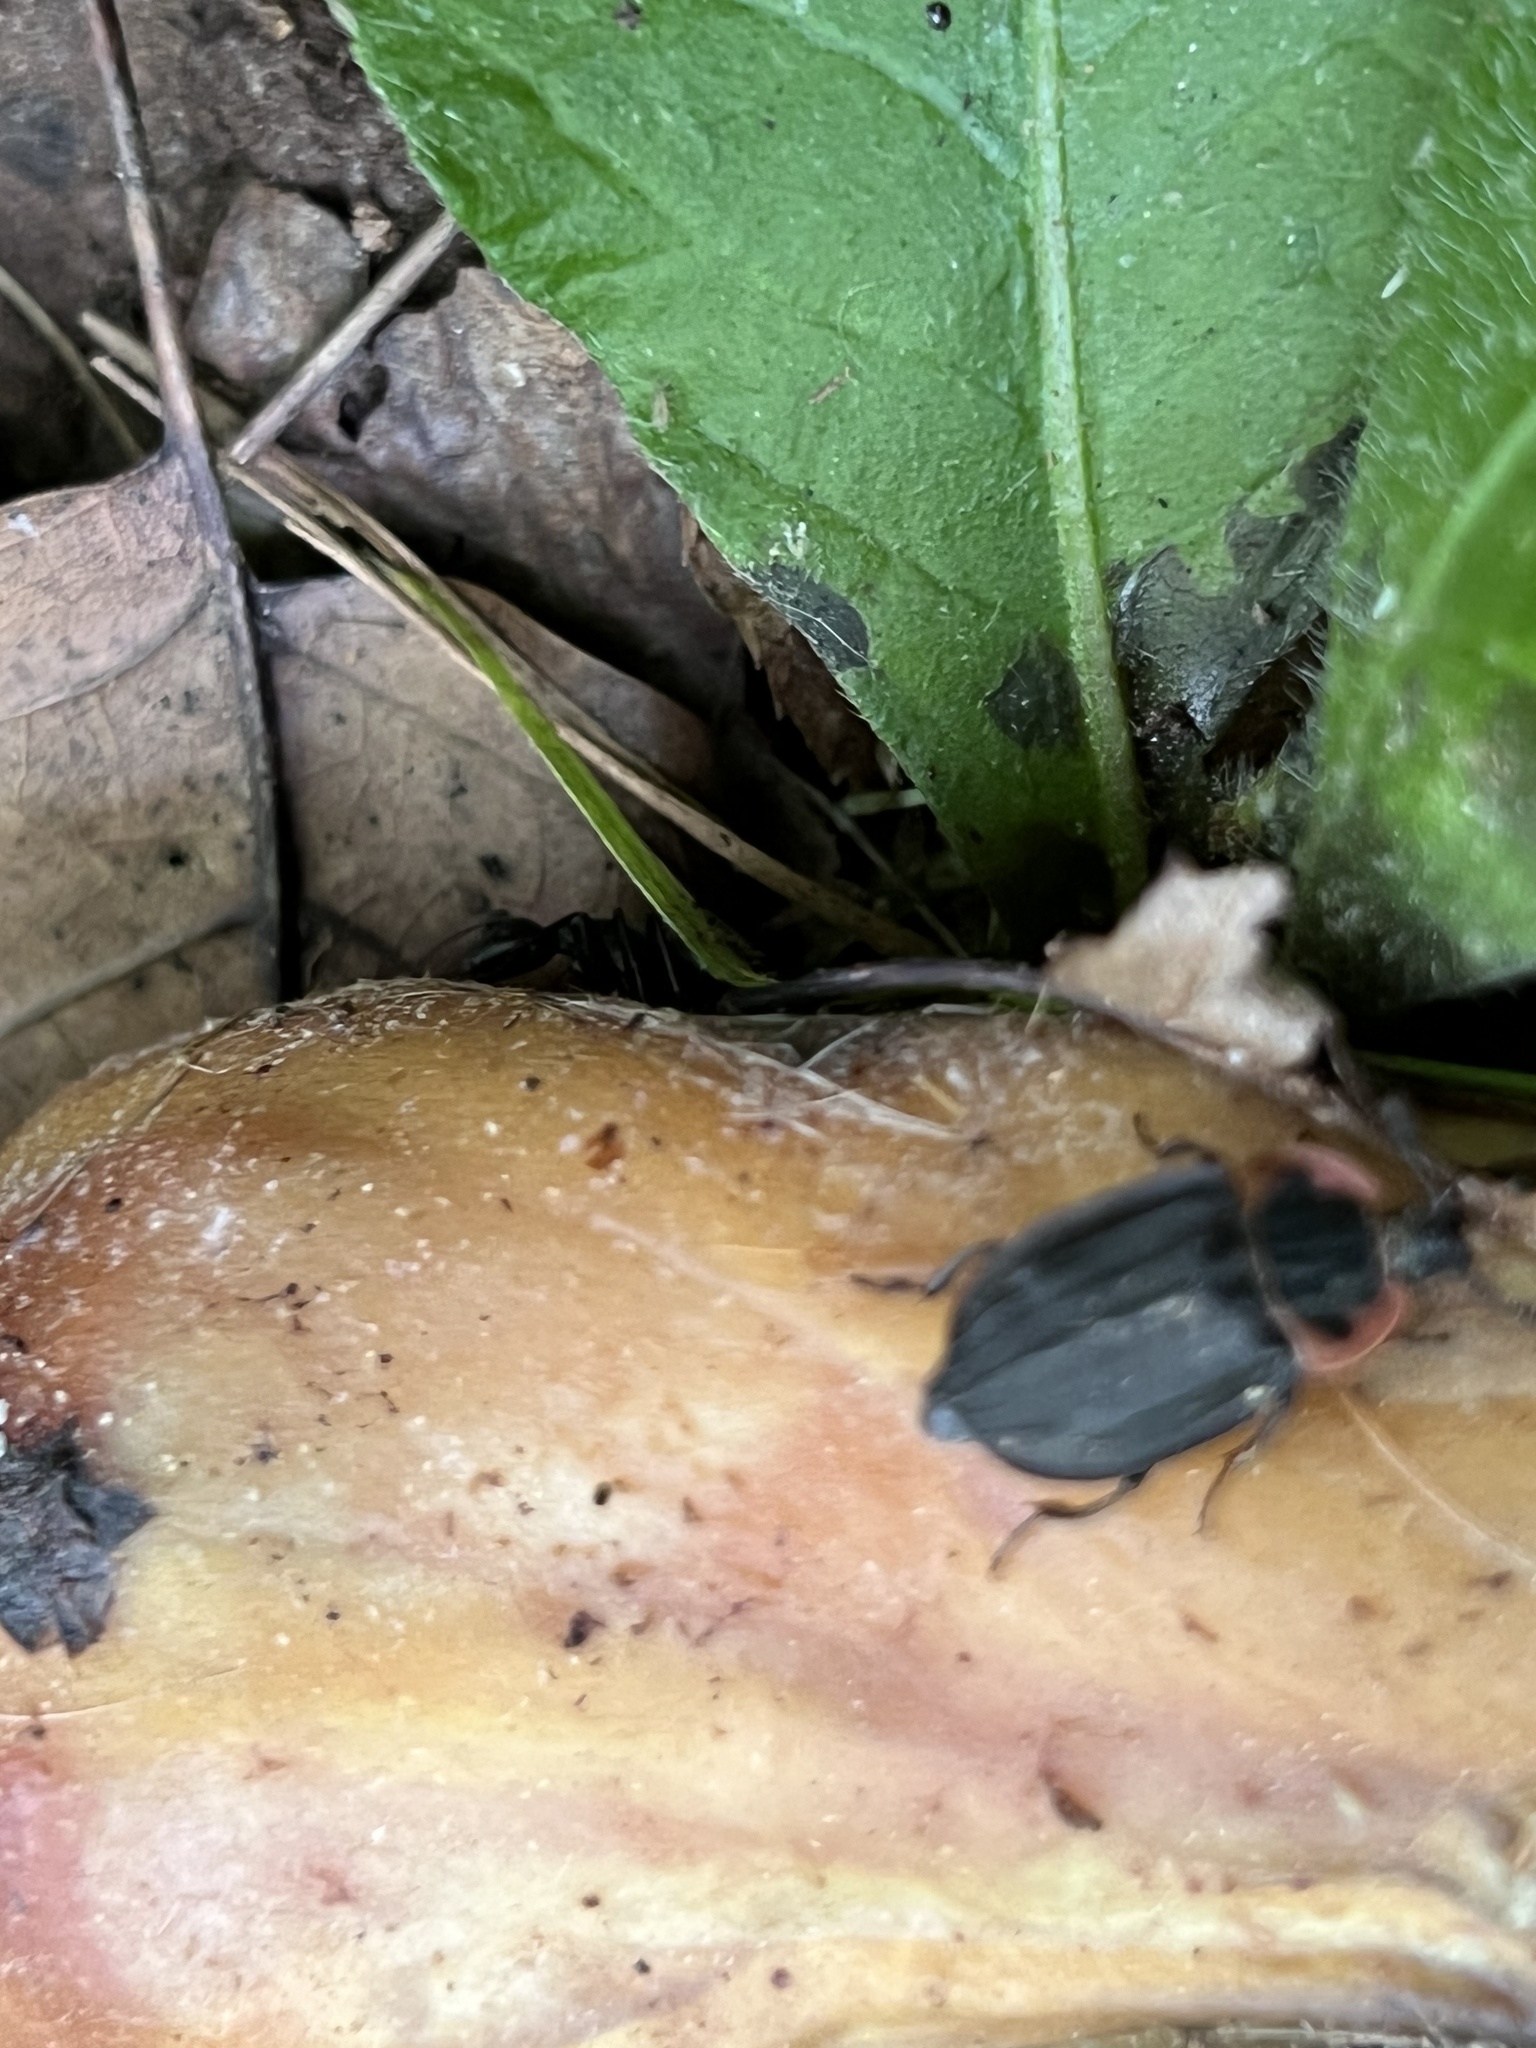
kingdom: Animalia
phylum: Arthropoda
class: Insecta
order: Coleoptera
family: Staphylinidae
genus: Oiceoptoma
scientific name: Oiceoptoma noveboracense
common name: Margined carrion beetle
